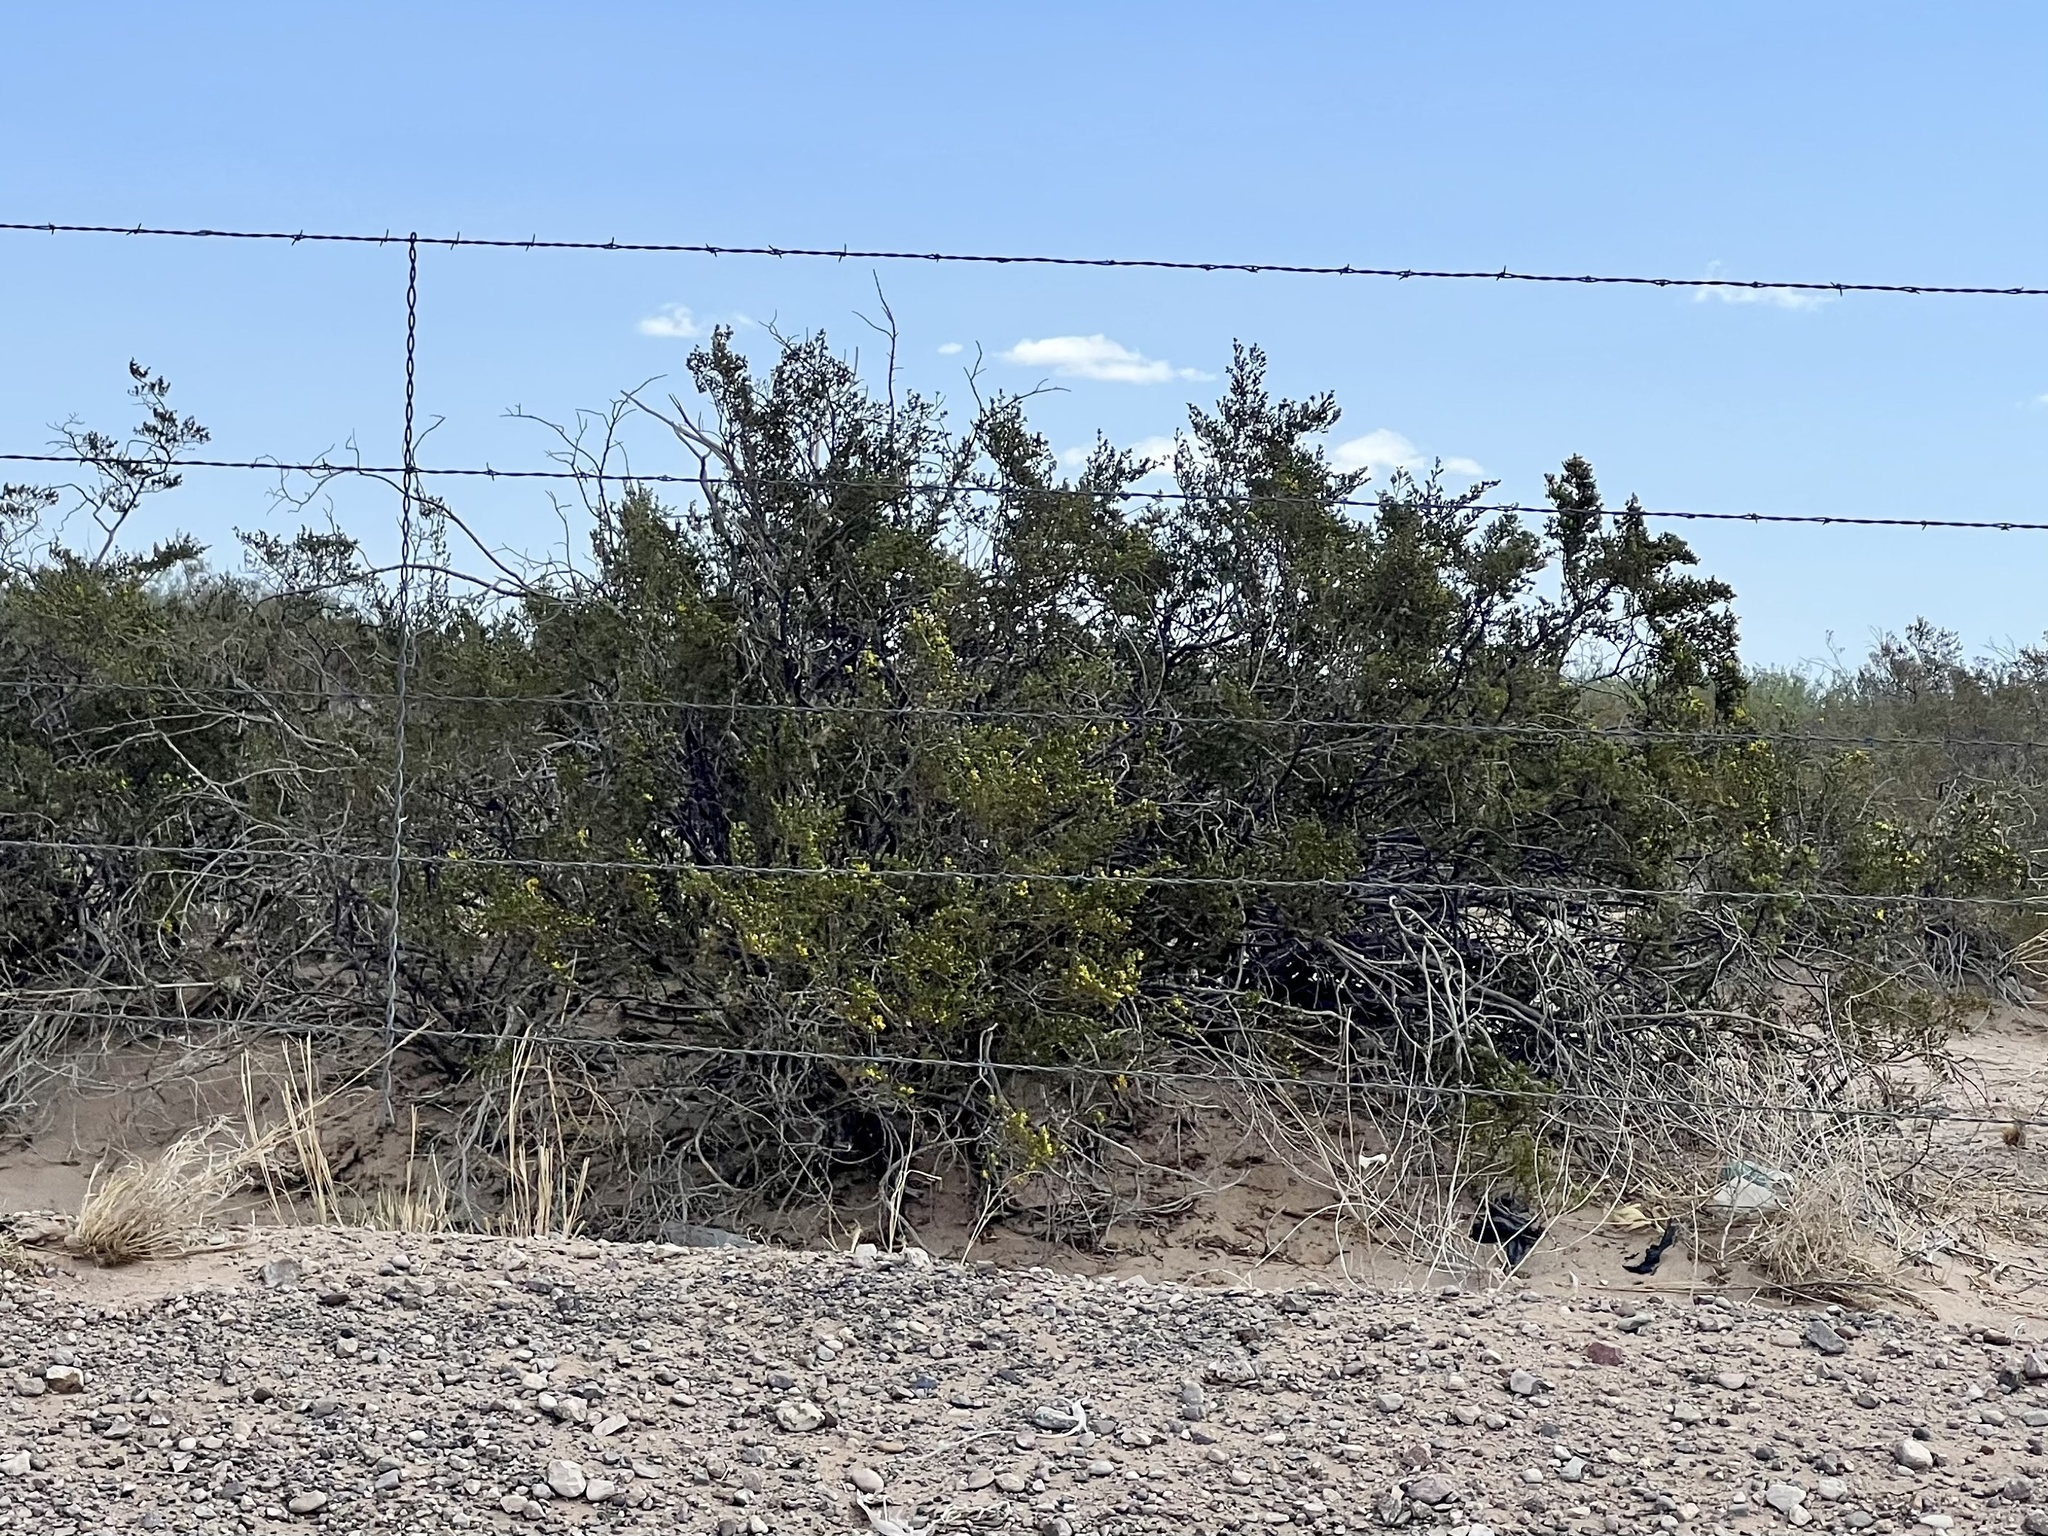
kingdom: Plantae
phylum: Tracheophyta
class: Magnoliopsida
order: Zygophyllales
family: Zygophyllaceae
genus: Larrea
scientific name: Larrea tridentata
